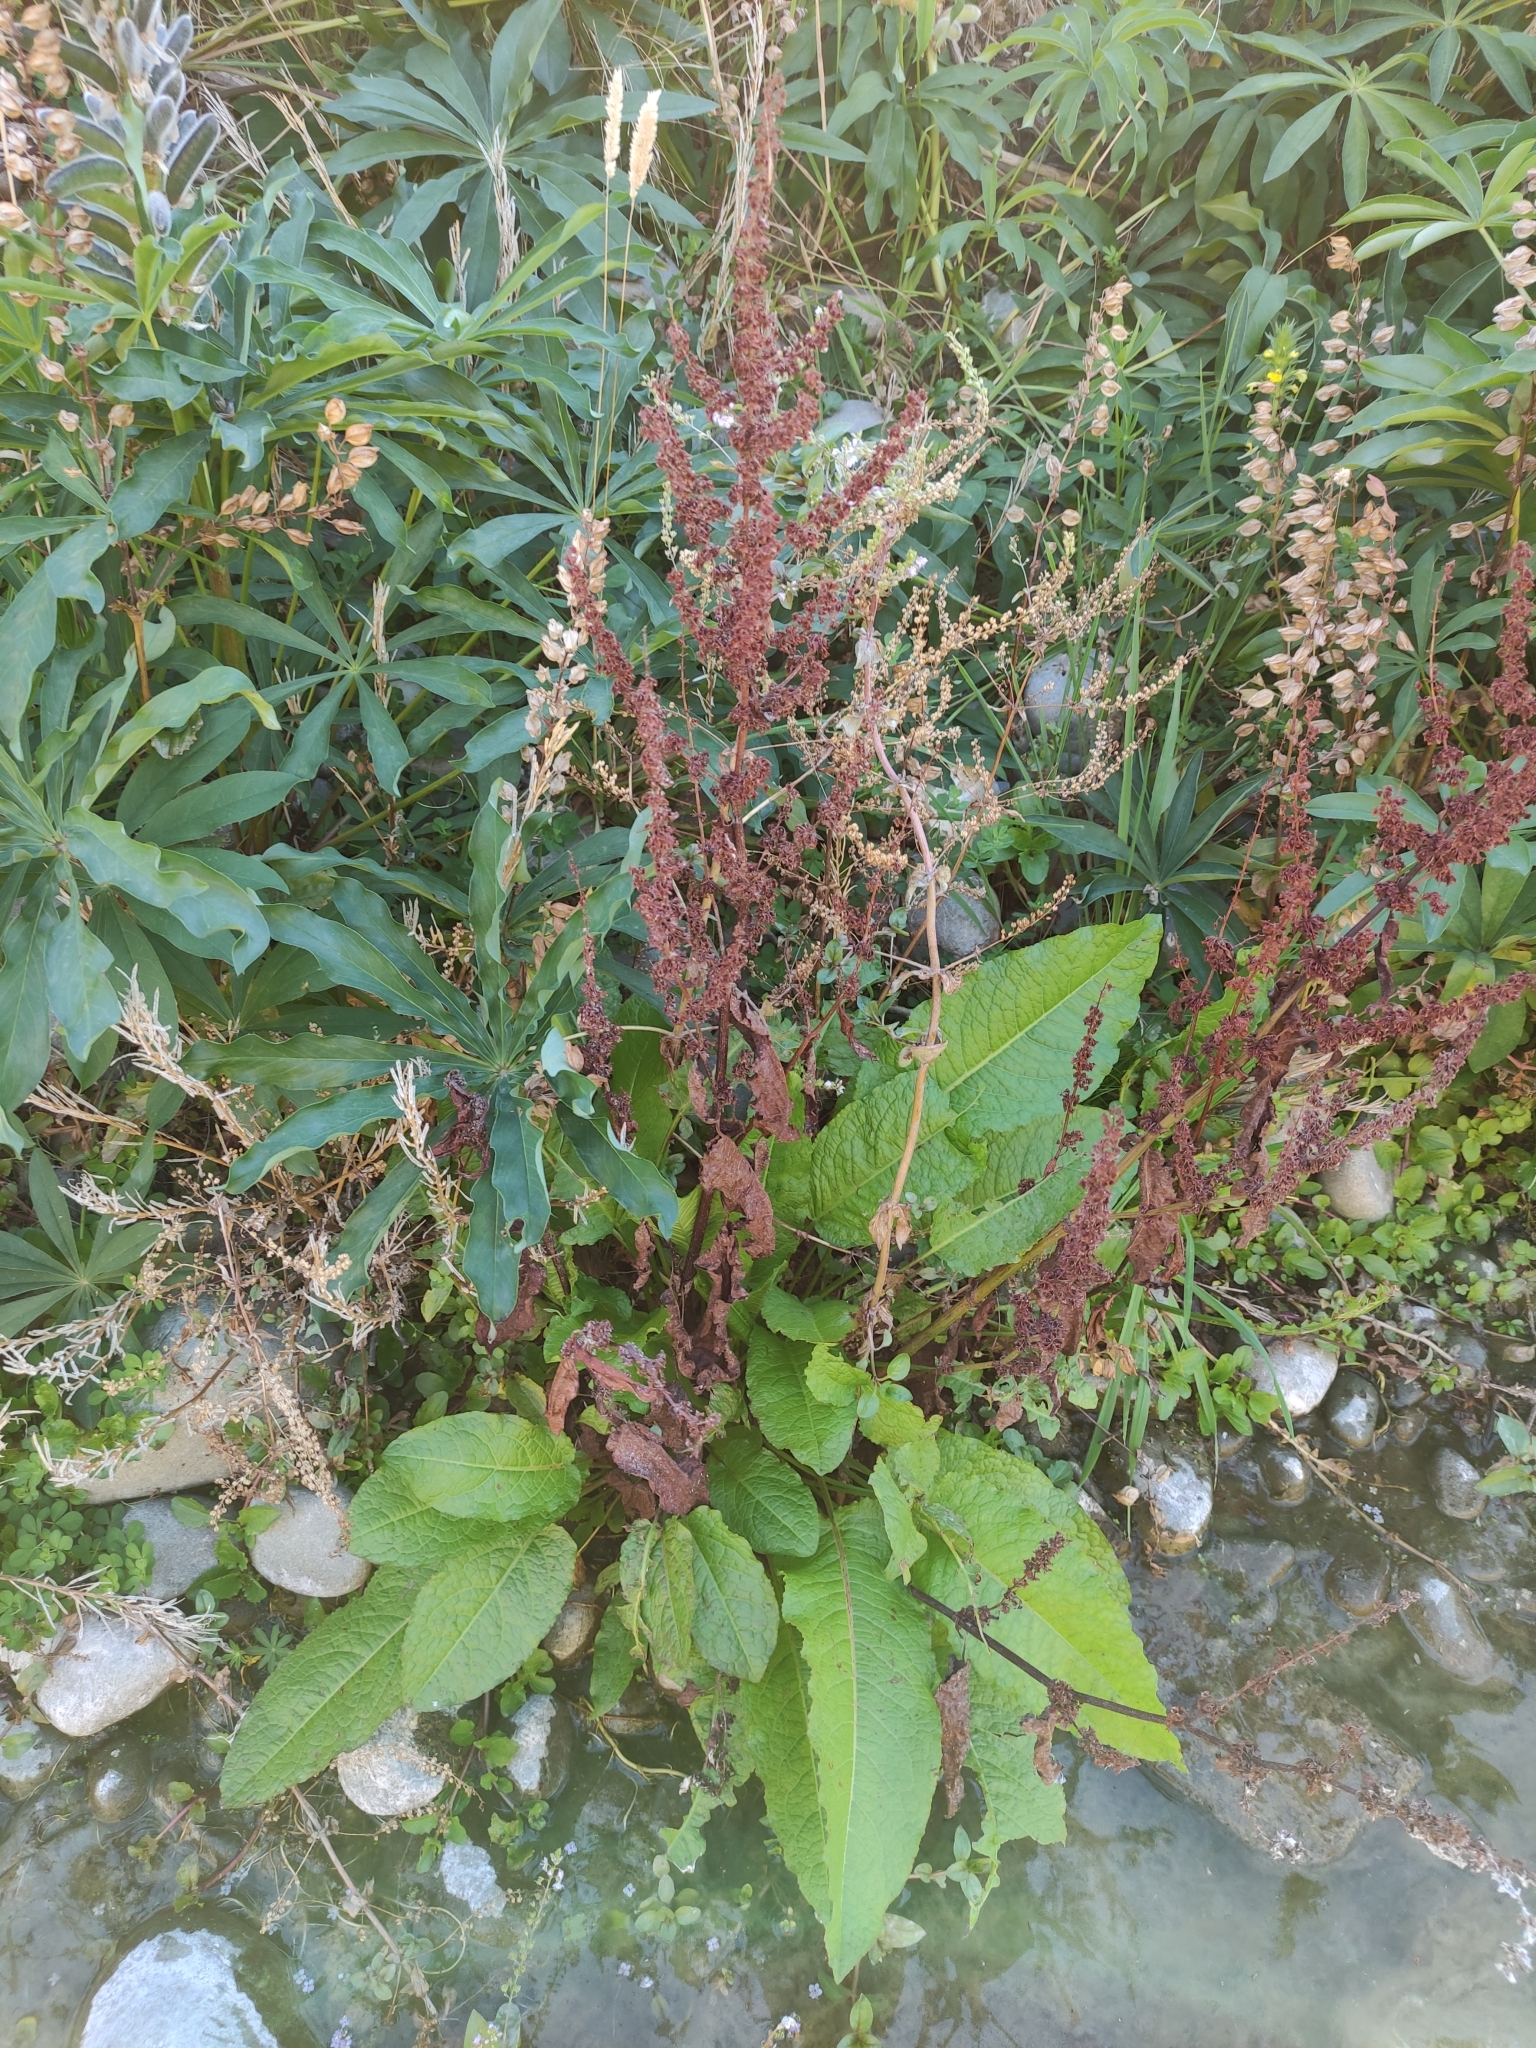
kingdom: Plantae
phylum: Tracheophyta
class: Magnoliopsida
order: Caryophyllales
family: Polygonaceae
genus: Rumex
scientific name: Rumex obtusifolius
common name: Bitter dock
